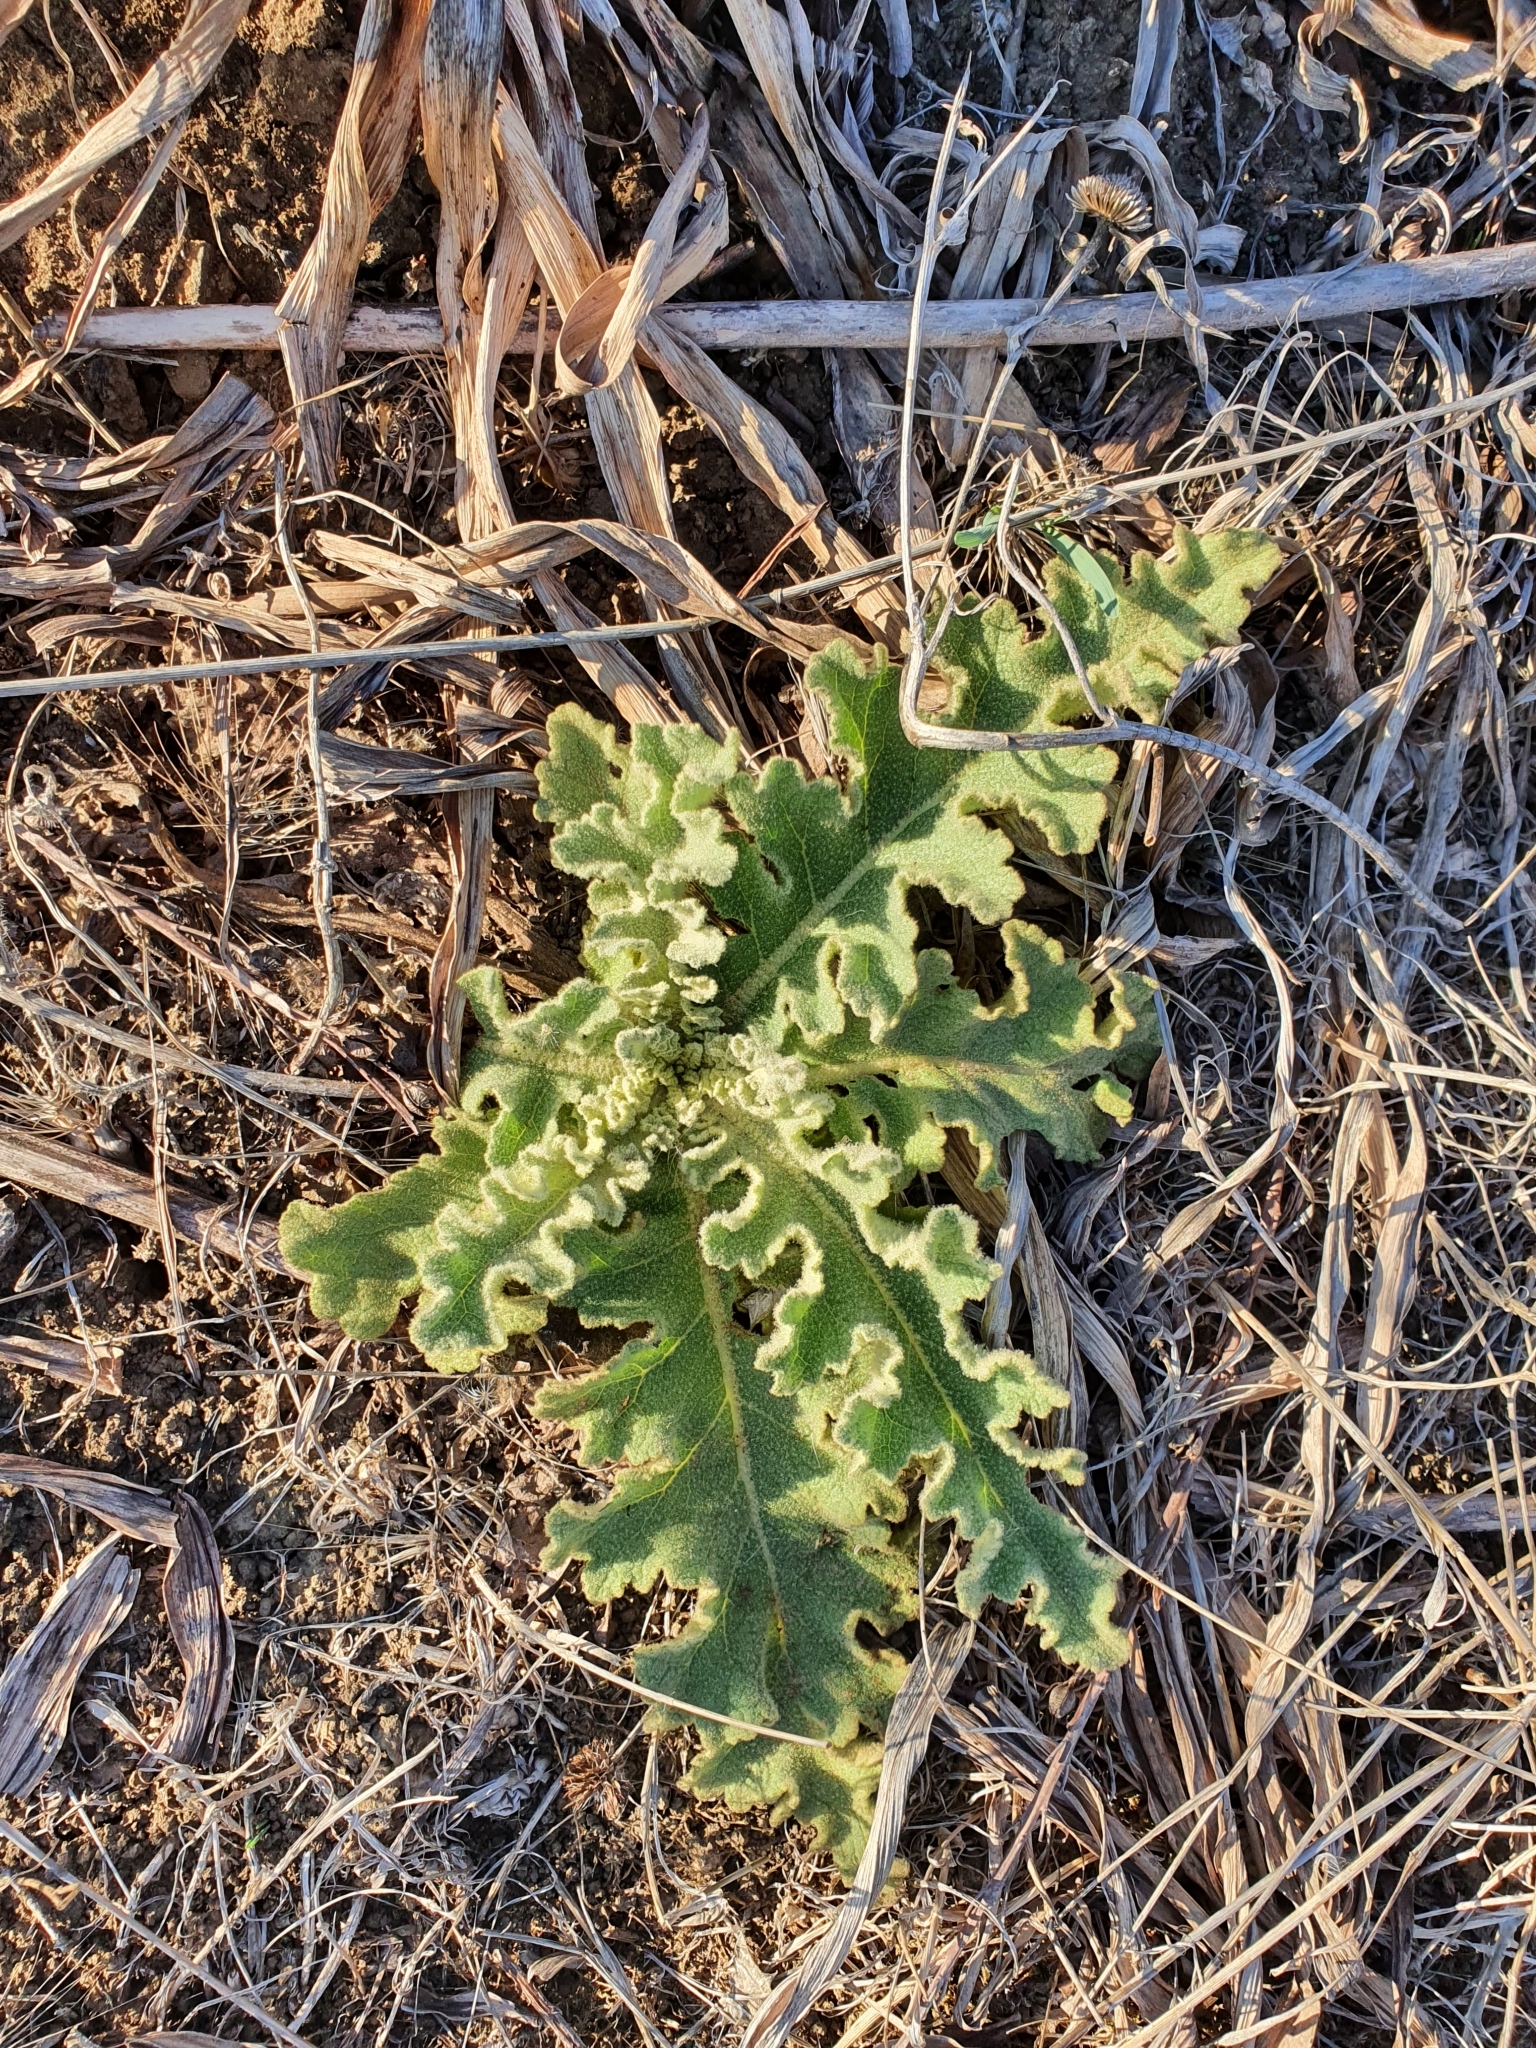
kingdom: Plantae
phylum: Tracheophyta
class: Magnoliopsida
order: Lamiales
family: Scrophulariaceae
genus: Verbascum
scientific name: Verbascum sinuatum
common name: Wavyleaf mullein
